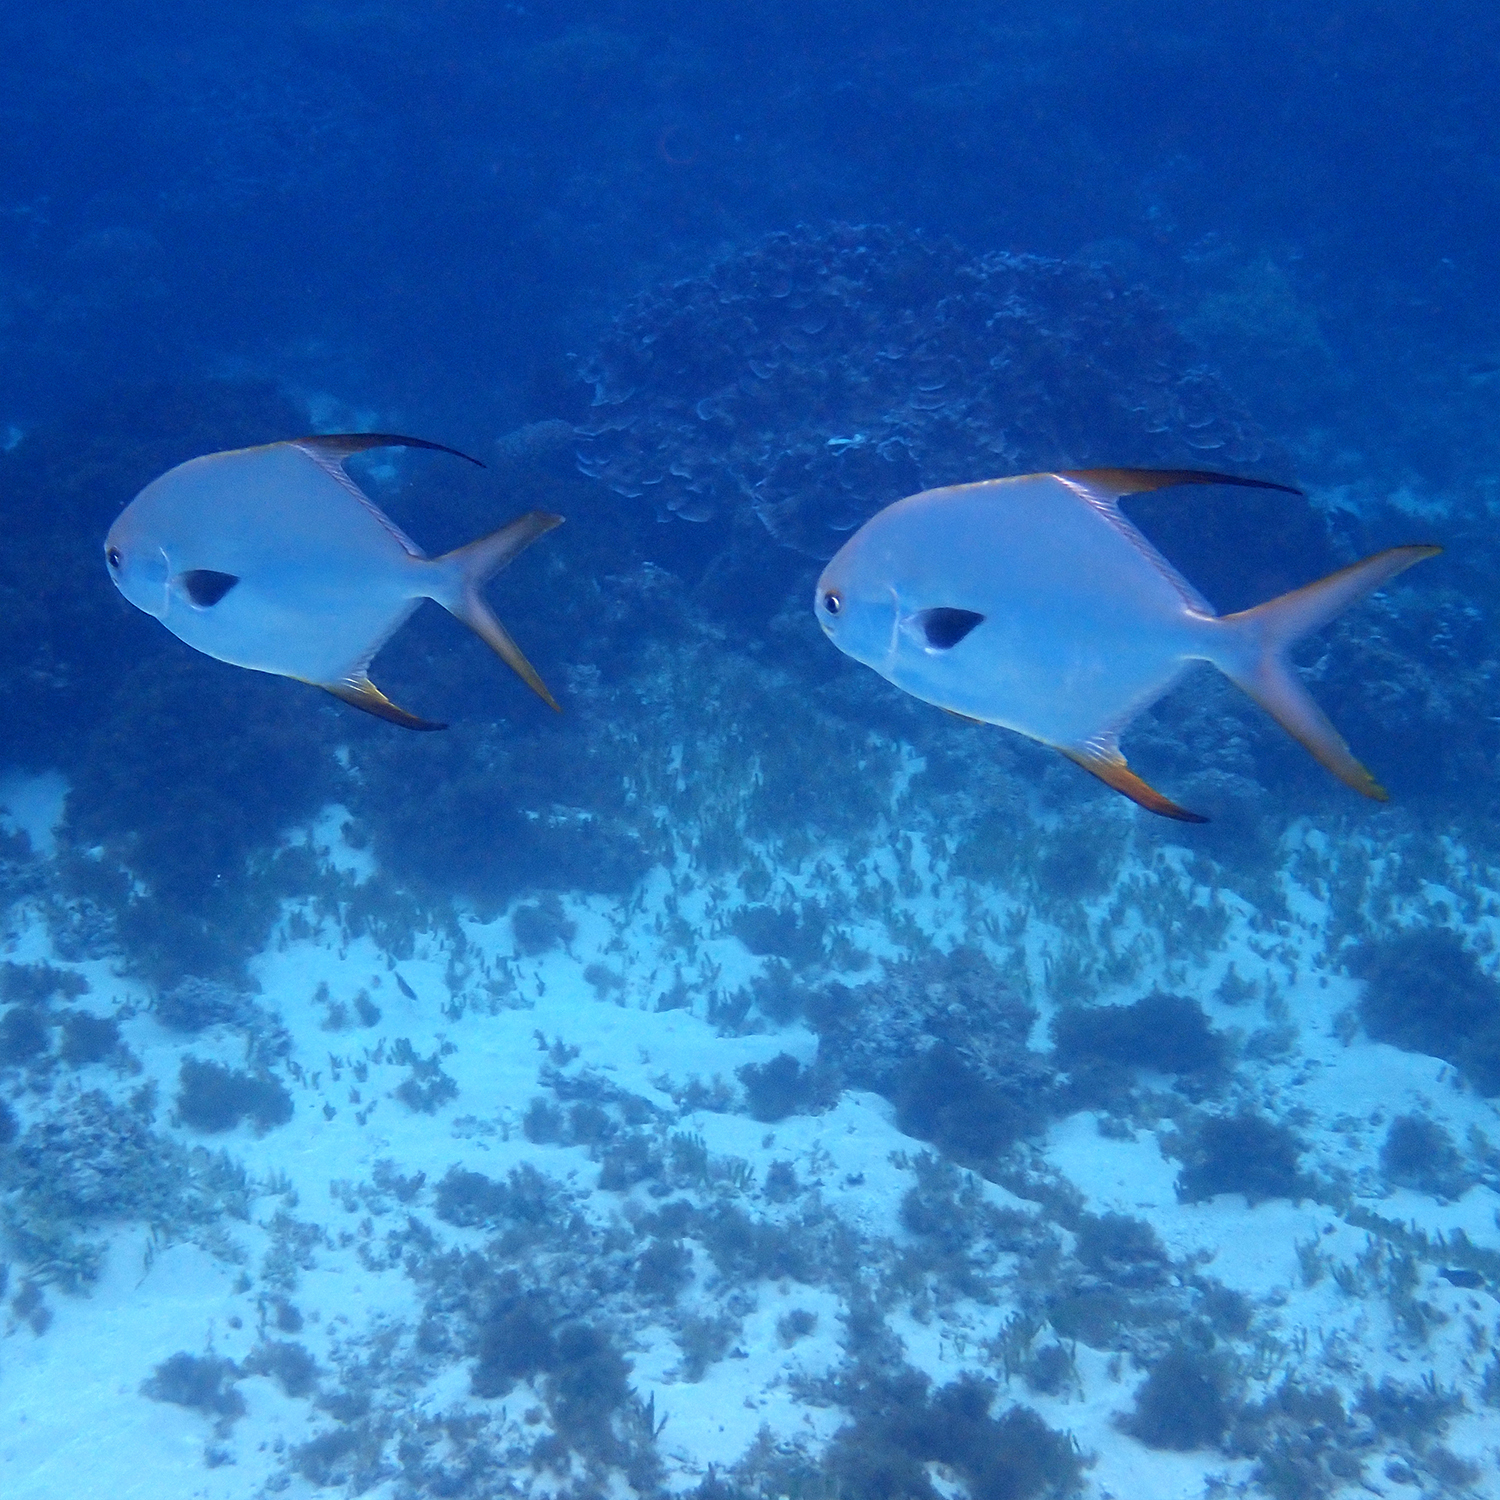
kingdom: Animalia
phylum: Chordata
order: Perciformes
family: Carangidae
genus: Trachinotus
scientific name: Trachinotus blochii
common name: Snubnose pompano
